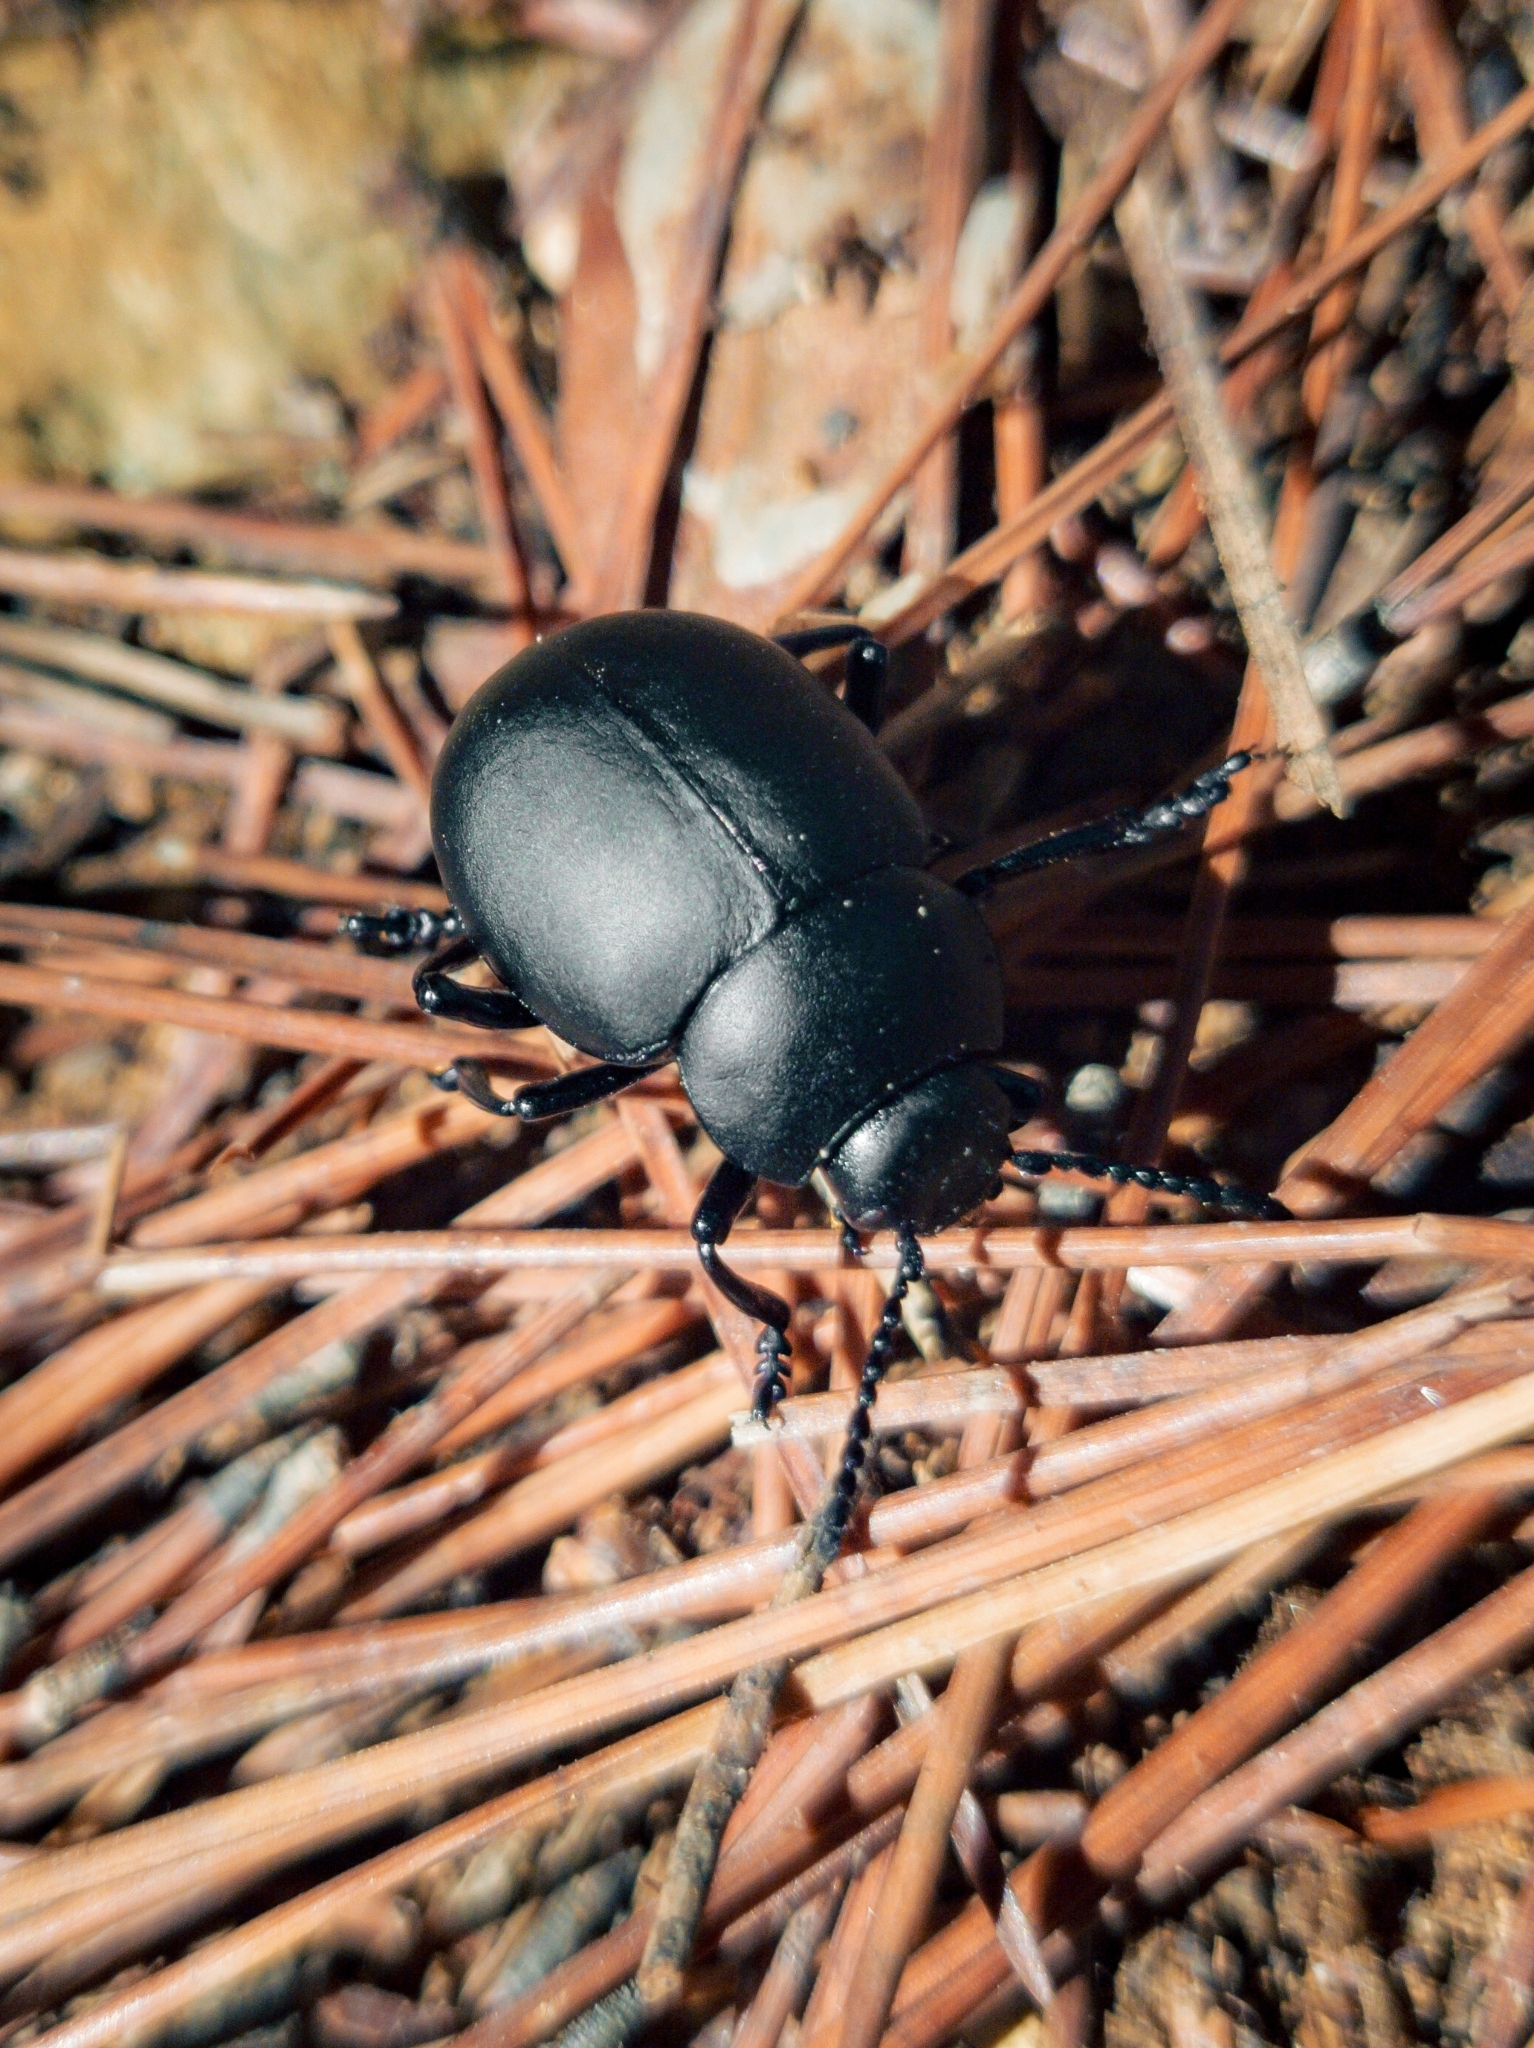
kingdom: Animalia
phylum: Arthropoda
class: Insecta
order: Coleoptera
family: Chrysomelidae
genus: Timarcha
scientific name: Timarcha tenebricosa
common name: Bloody-nosed beetle
